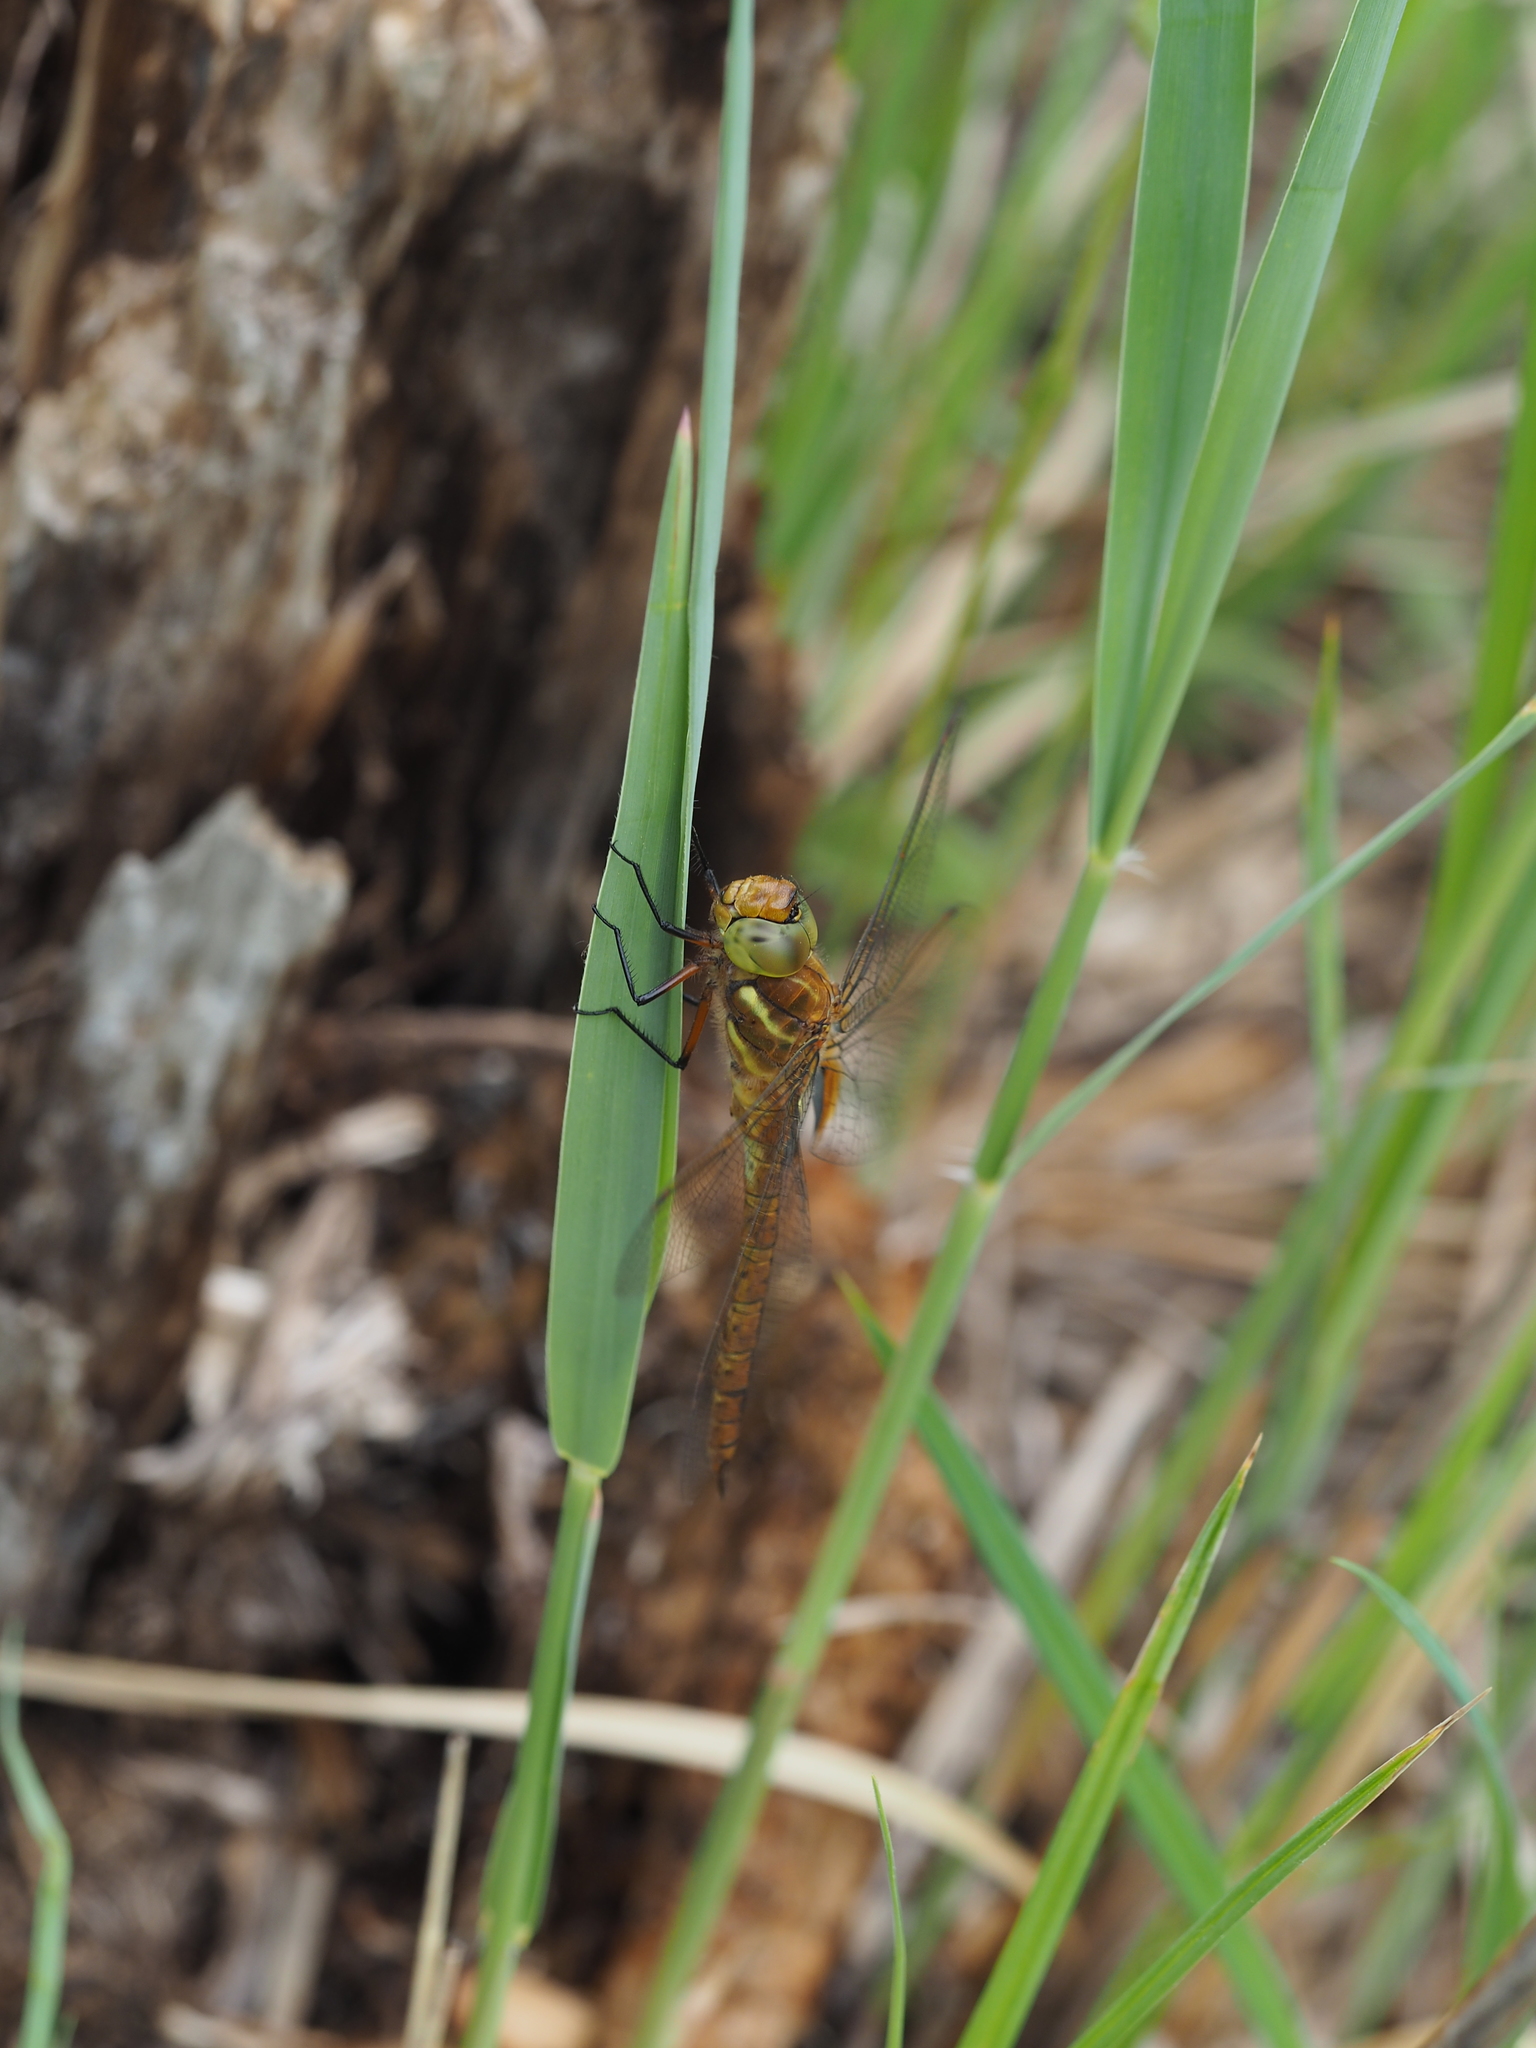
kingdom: Animalia
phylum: Arthropoda
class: Insecta
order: Odonata
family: Aeshnidae
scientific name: Aeshnidae
